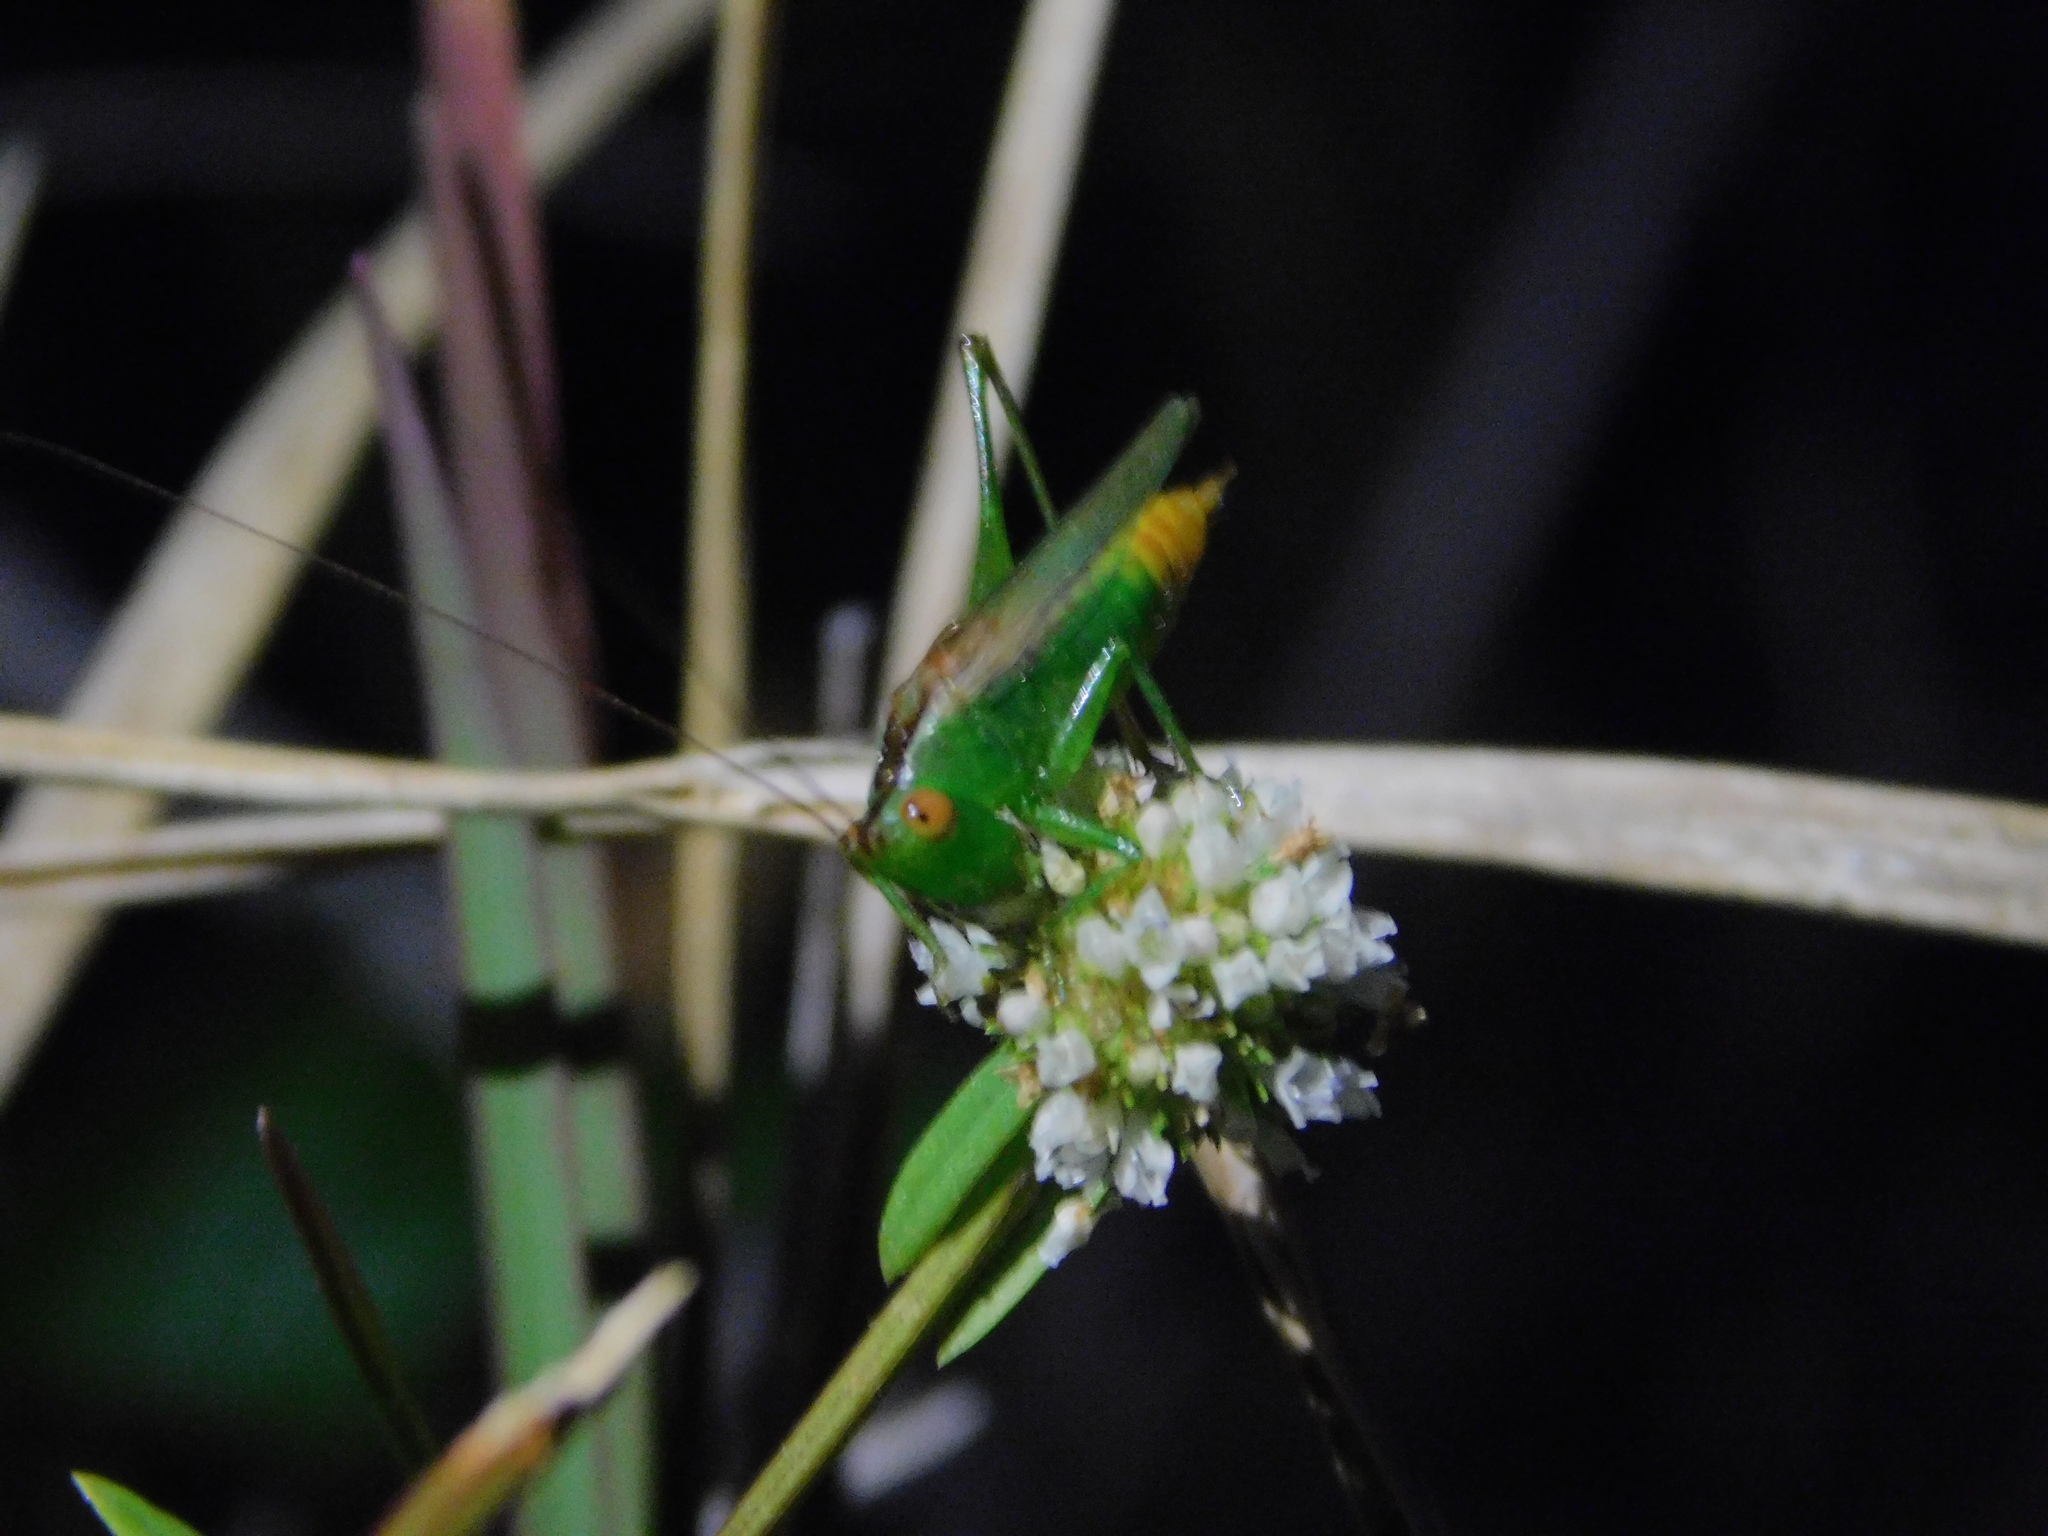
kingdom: Animalia
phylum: Arthropoda
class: Insecta
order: Orthoptera
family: Tettigoniidae
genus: Conocephalus
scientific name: Conocephalus cinereus
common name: Caribbean meadow katydid
